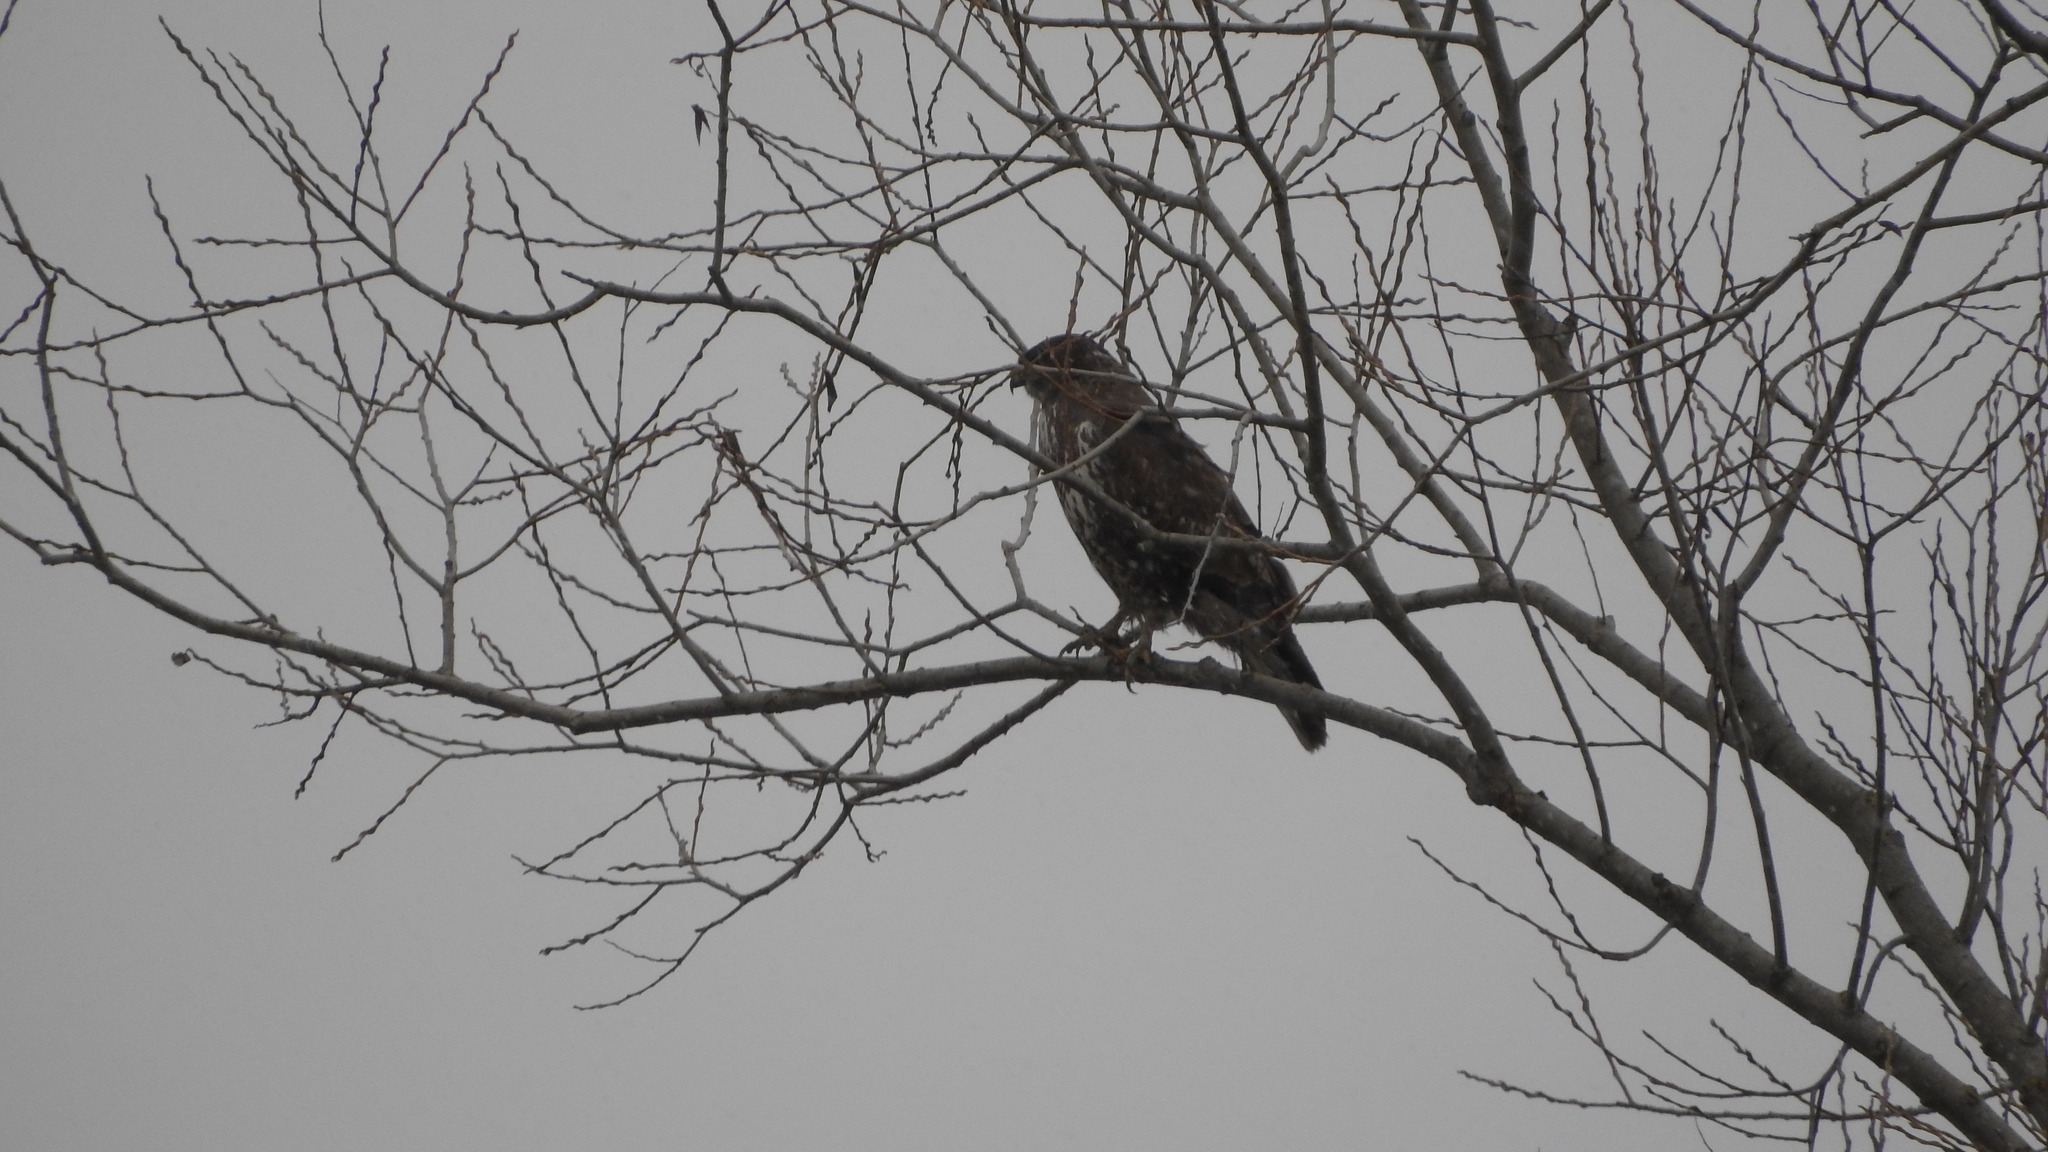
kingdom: Animalia
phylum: Chordata
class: Aves
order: Accipitriformes
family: Accipitridae
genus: Buteo
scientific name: Buteo buteo
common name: Common buzzard
